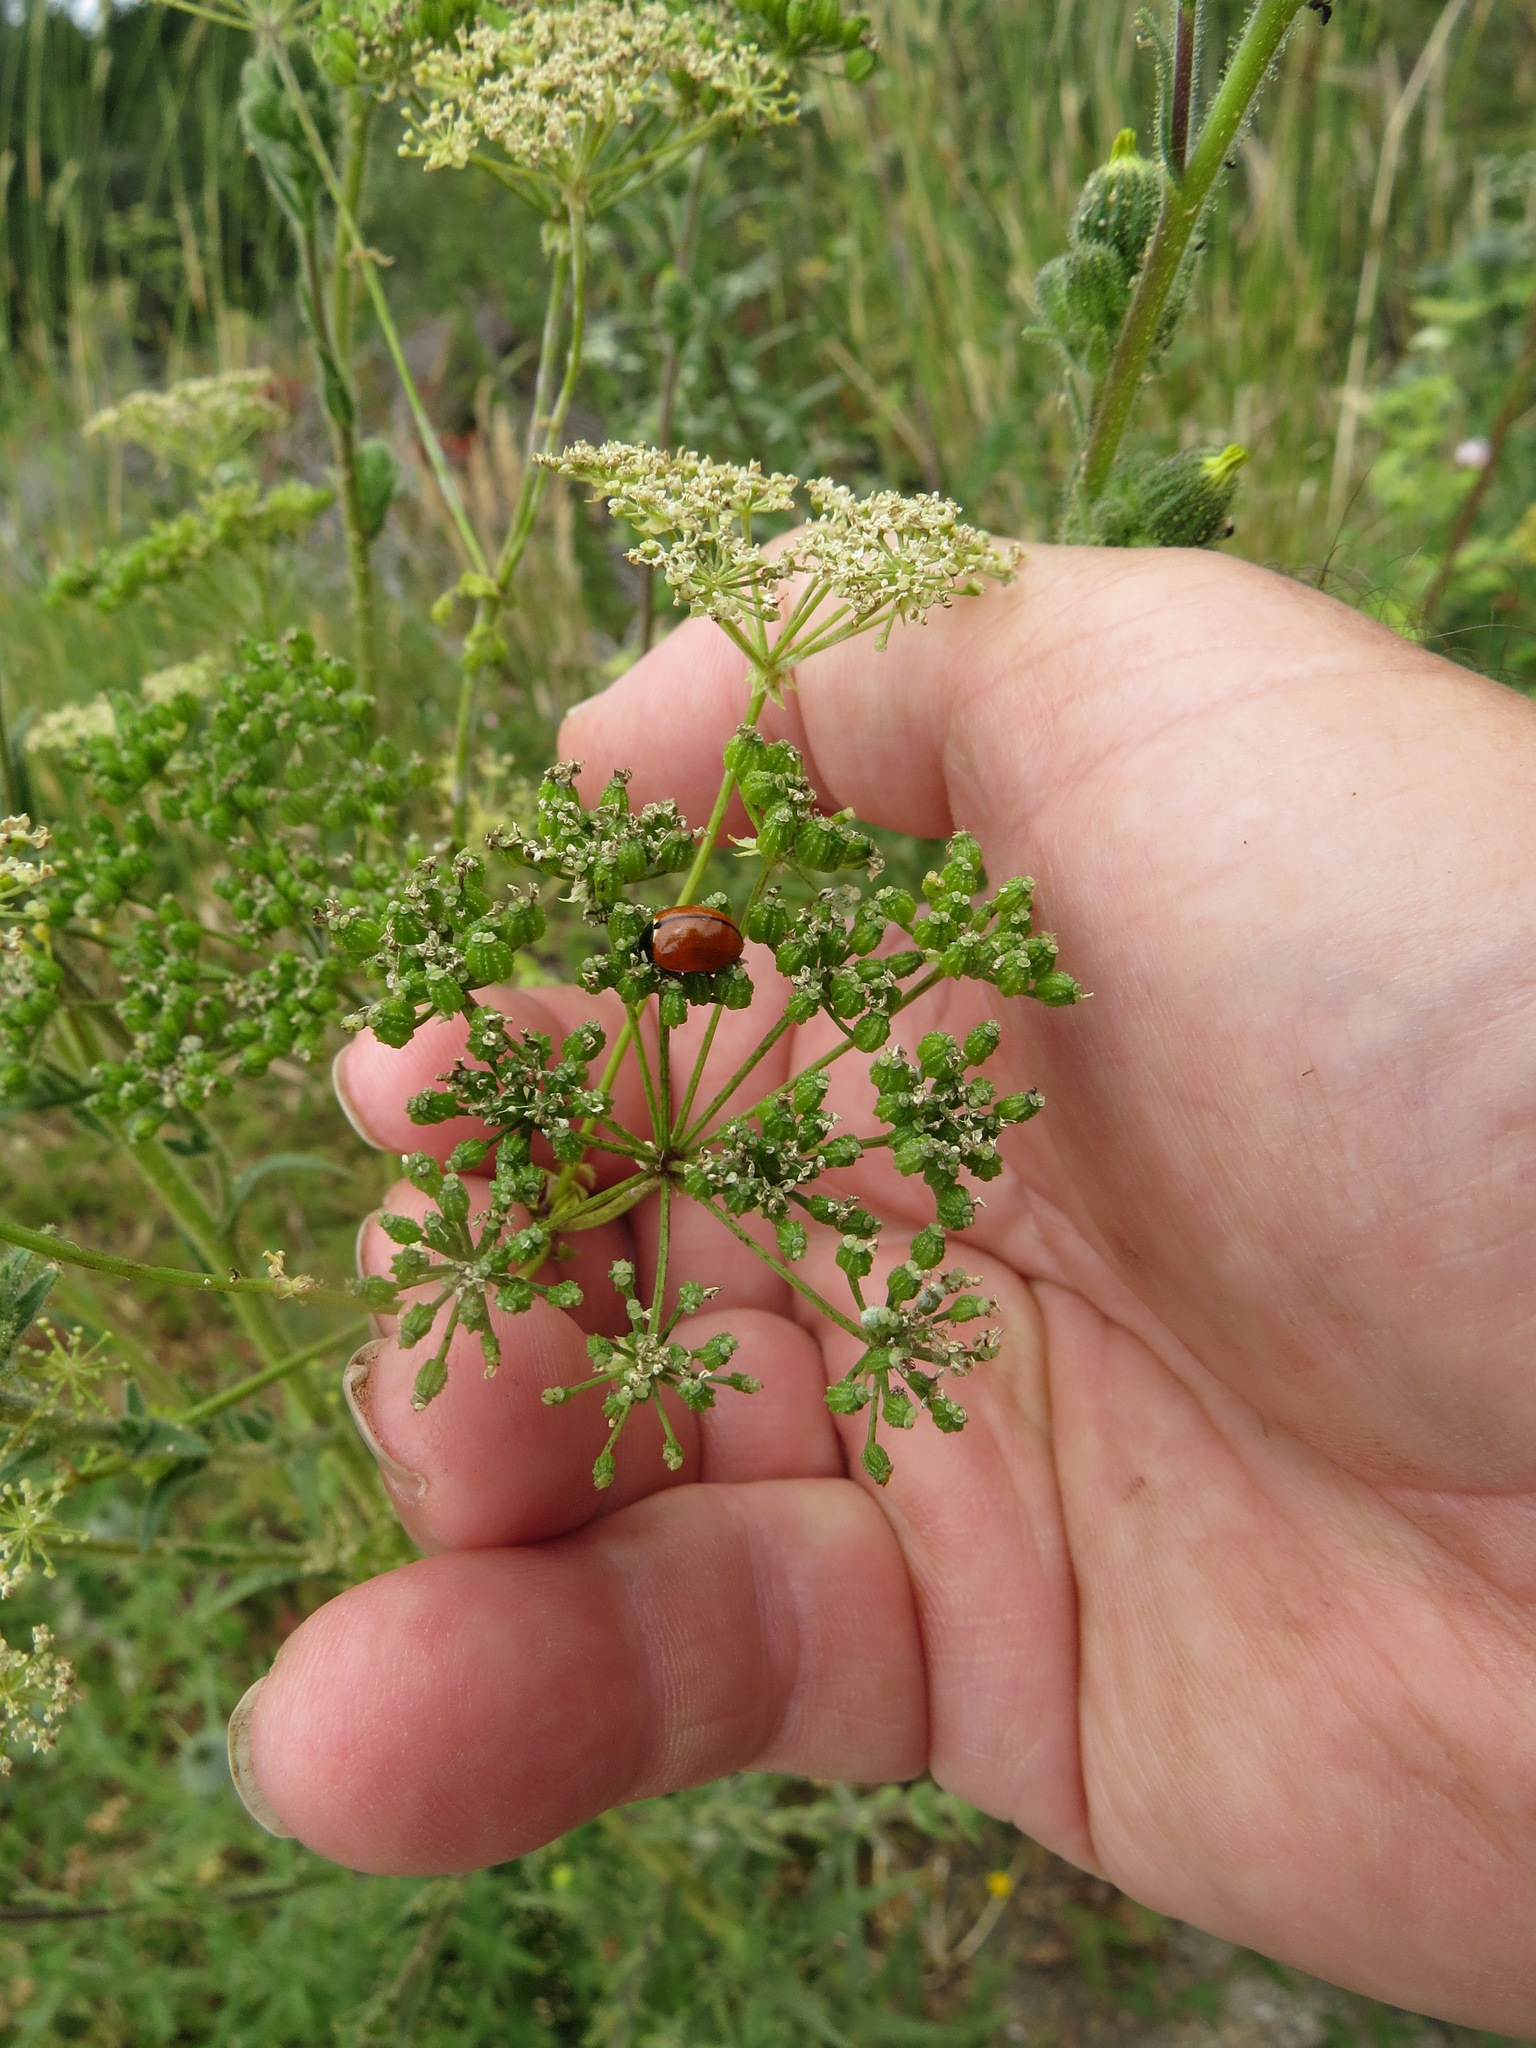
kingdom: Animalia
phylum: Arthropoda
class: Insecta
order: Coleoptera
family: Coccinellidae
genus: Coccinella
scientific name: Coccinella californica
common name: Lady beetle
